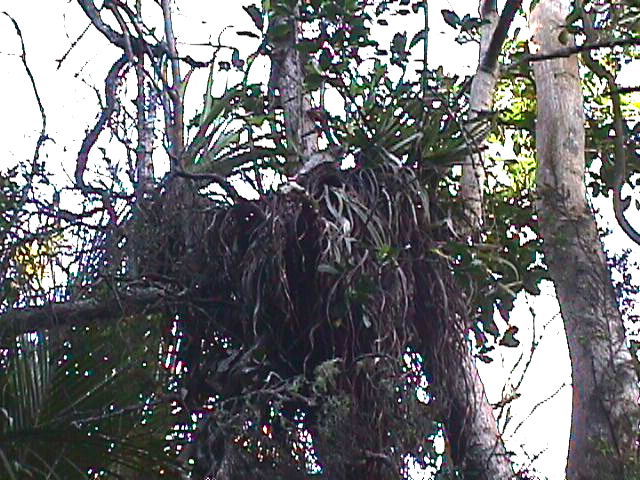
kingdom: Plantae
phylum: Tracheophyta
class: Liliopsida
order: Asparagales
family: Asteliaceae
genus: Astelia
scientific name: Astelia hastata
